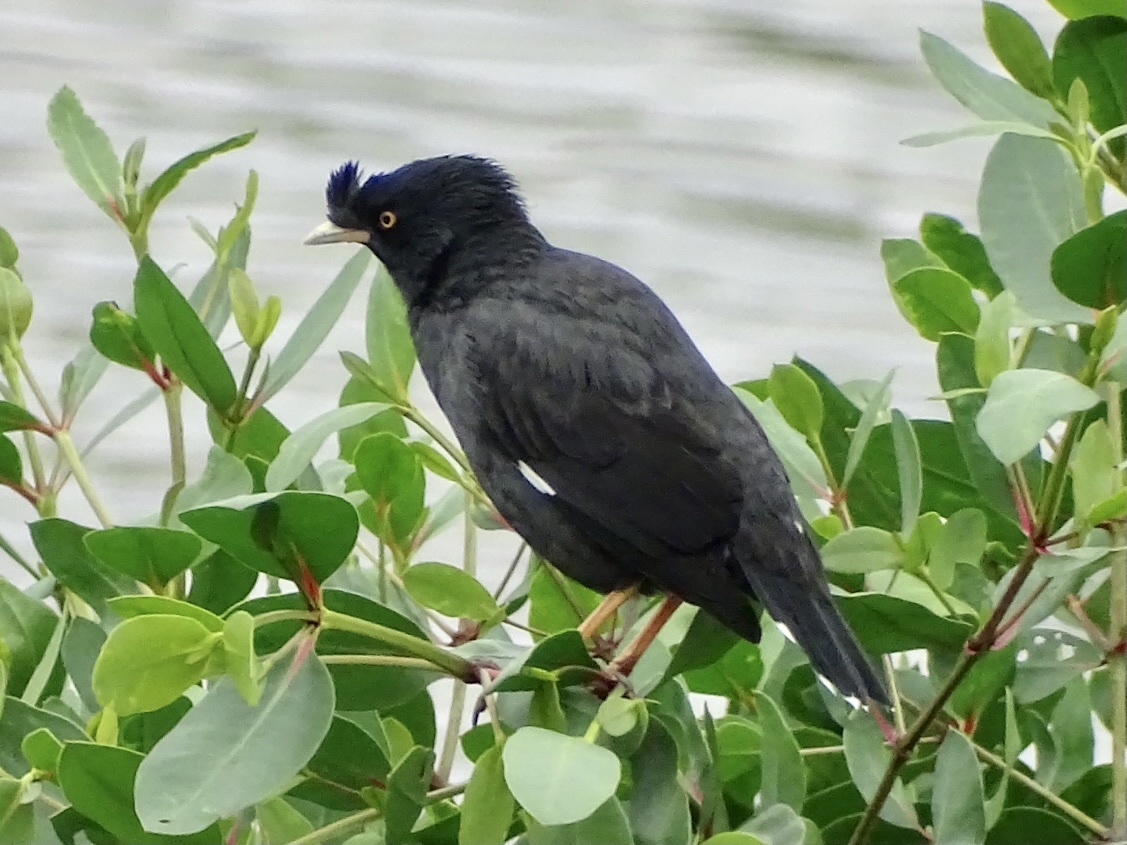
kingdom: Animalia
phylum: Chordata
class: Aves
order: Passeriformes
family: Sturnidae
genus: Acridotheres
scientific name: Acridotheres cristatellus
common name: Crested myna
